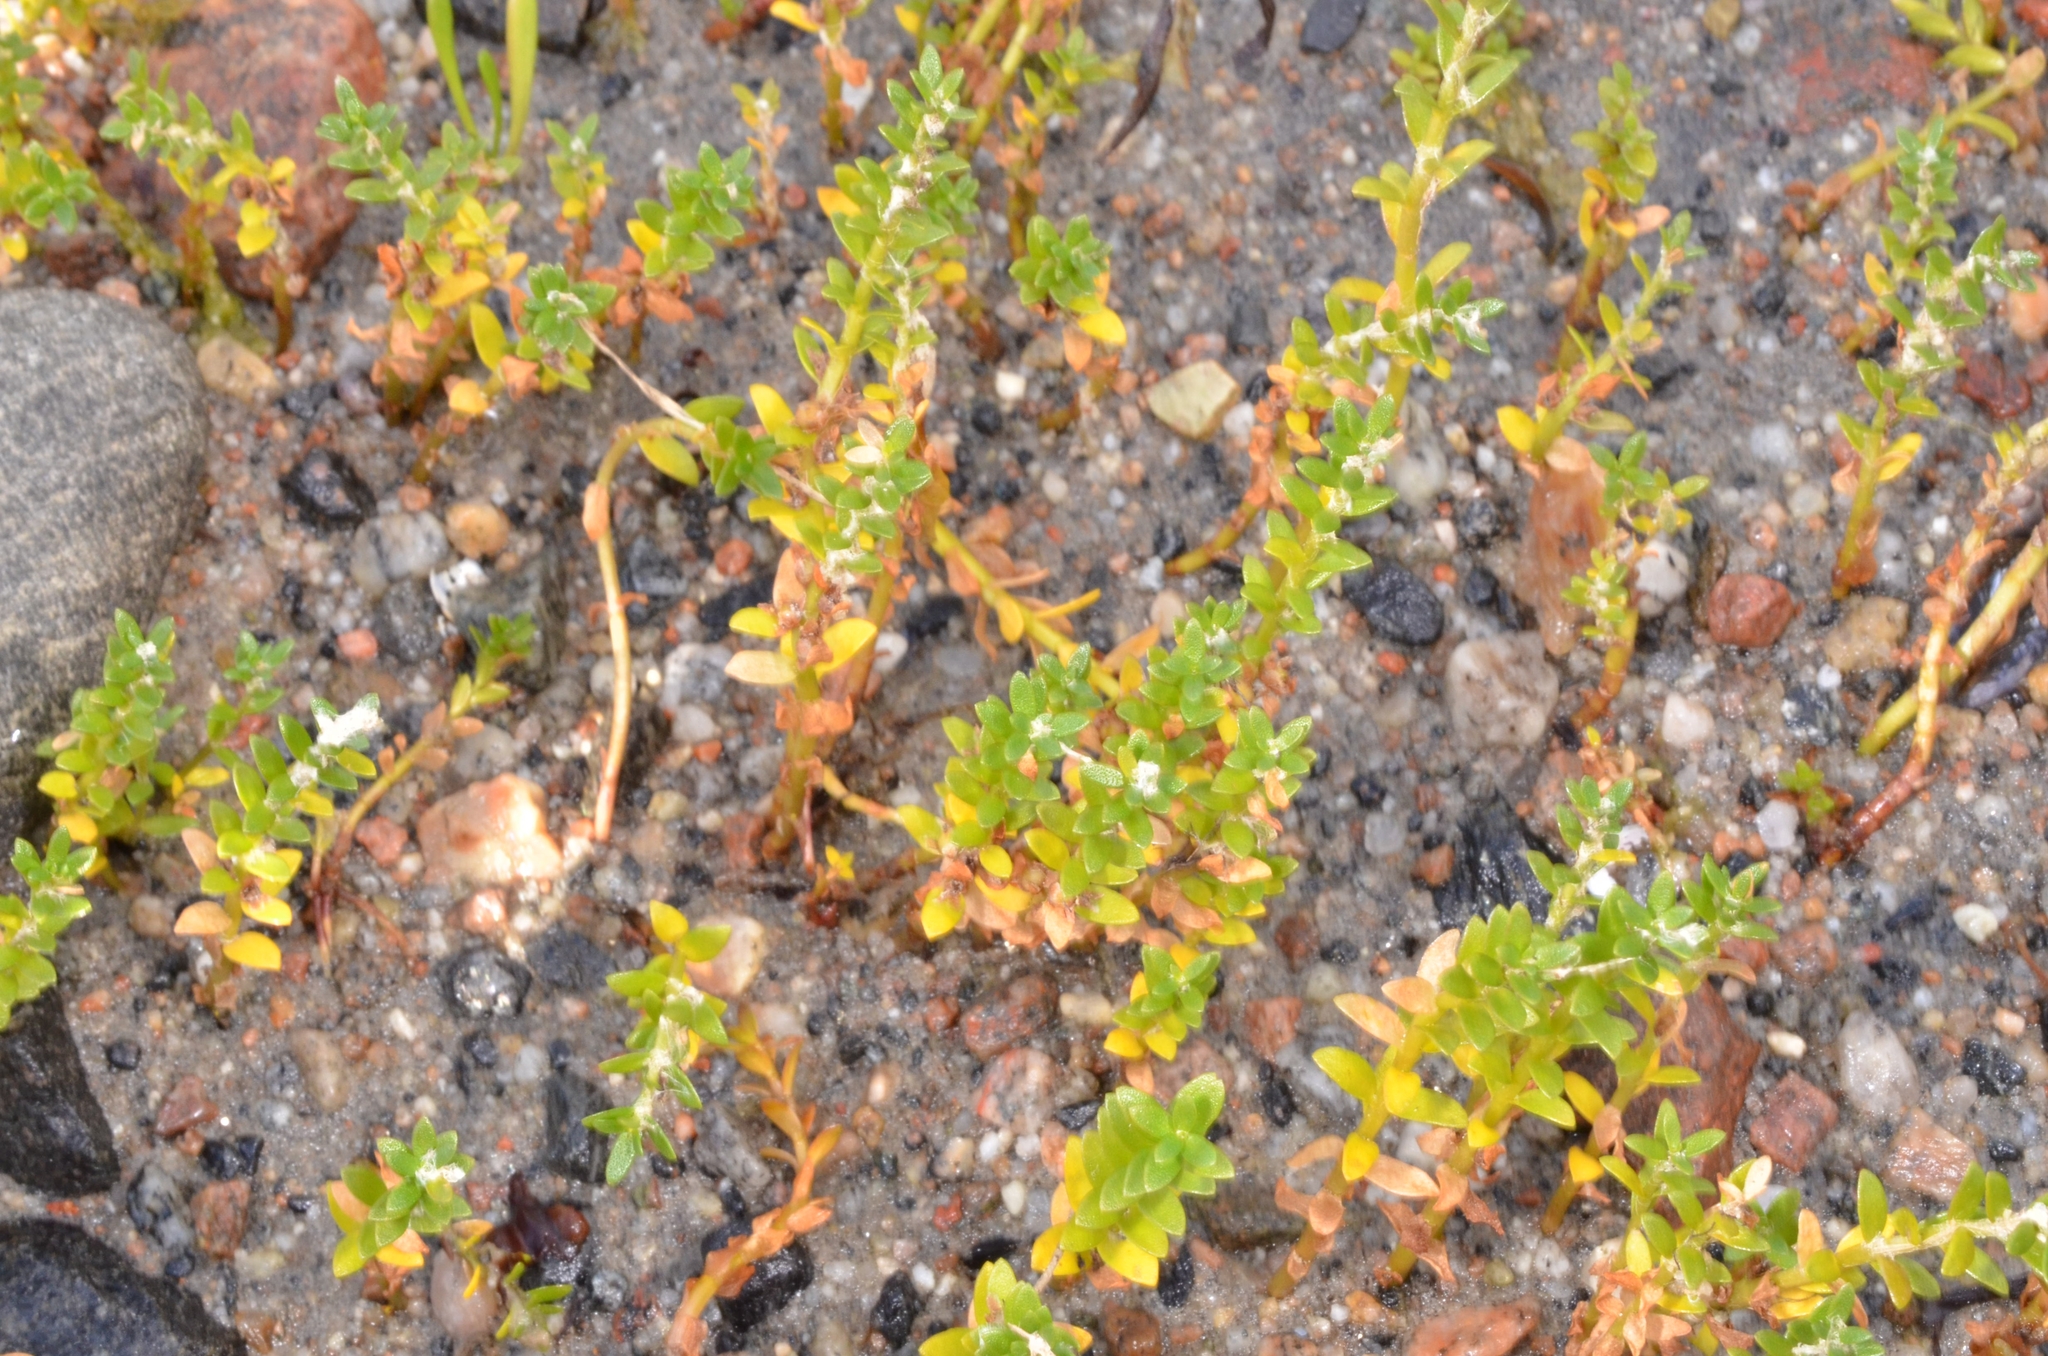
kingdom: Plantae
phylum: Tracheophyta
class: Magnoliopsida
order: Ericales
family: Primulaceae
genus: Lysimachia
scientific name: Lysimachia maritima
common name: Sea milkwort
